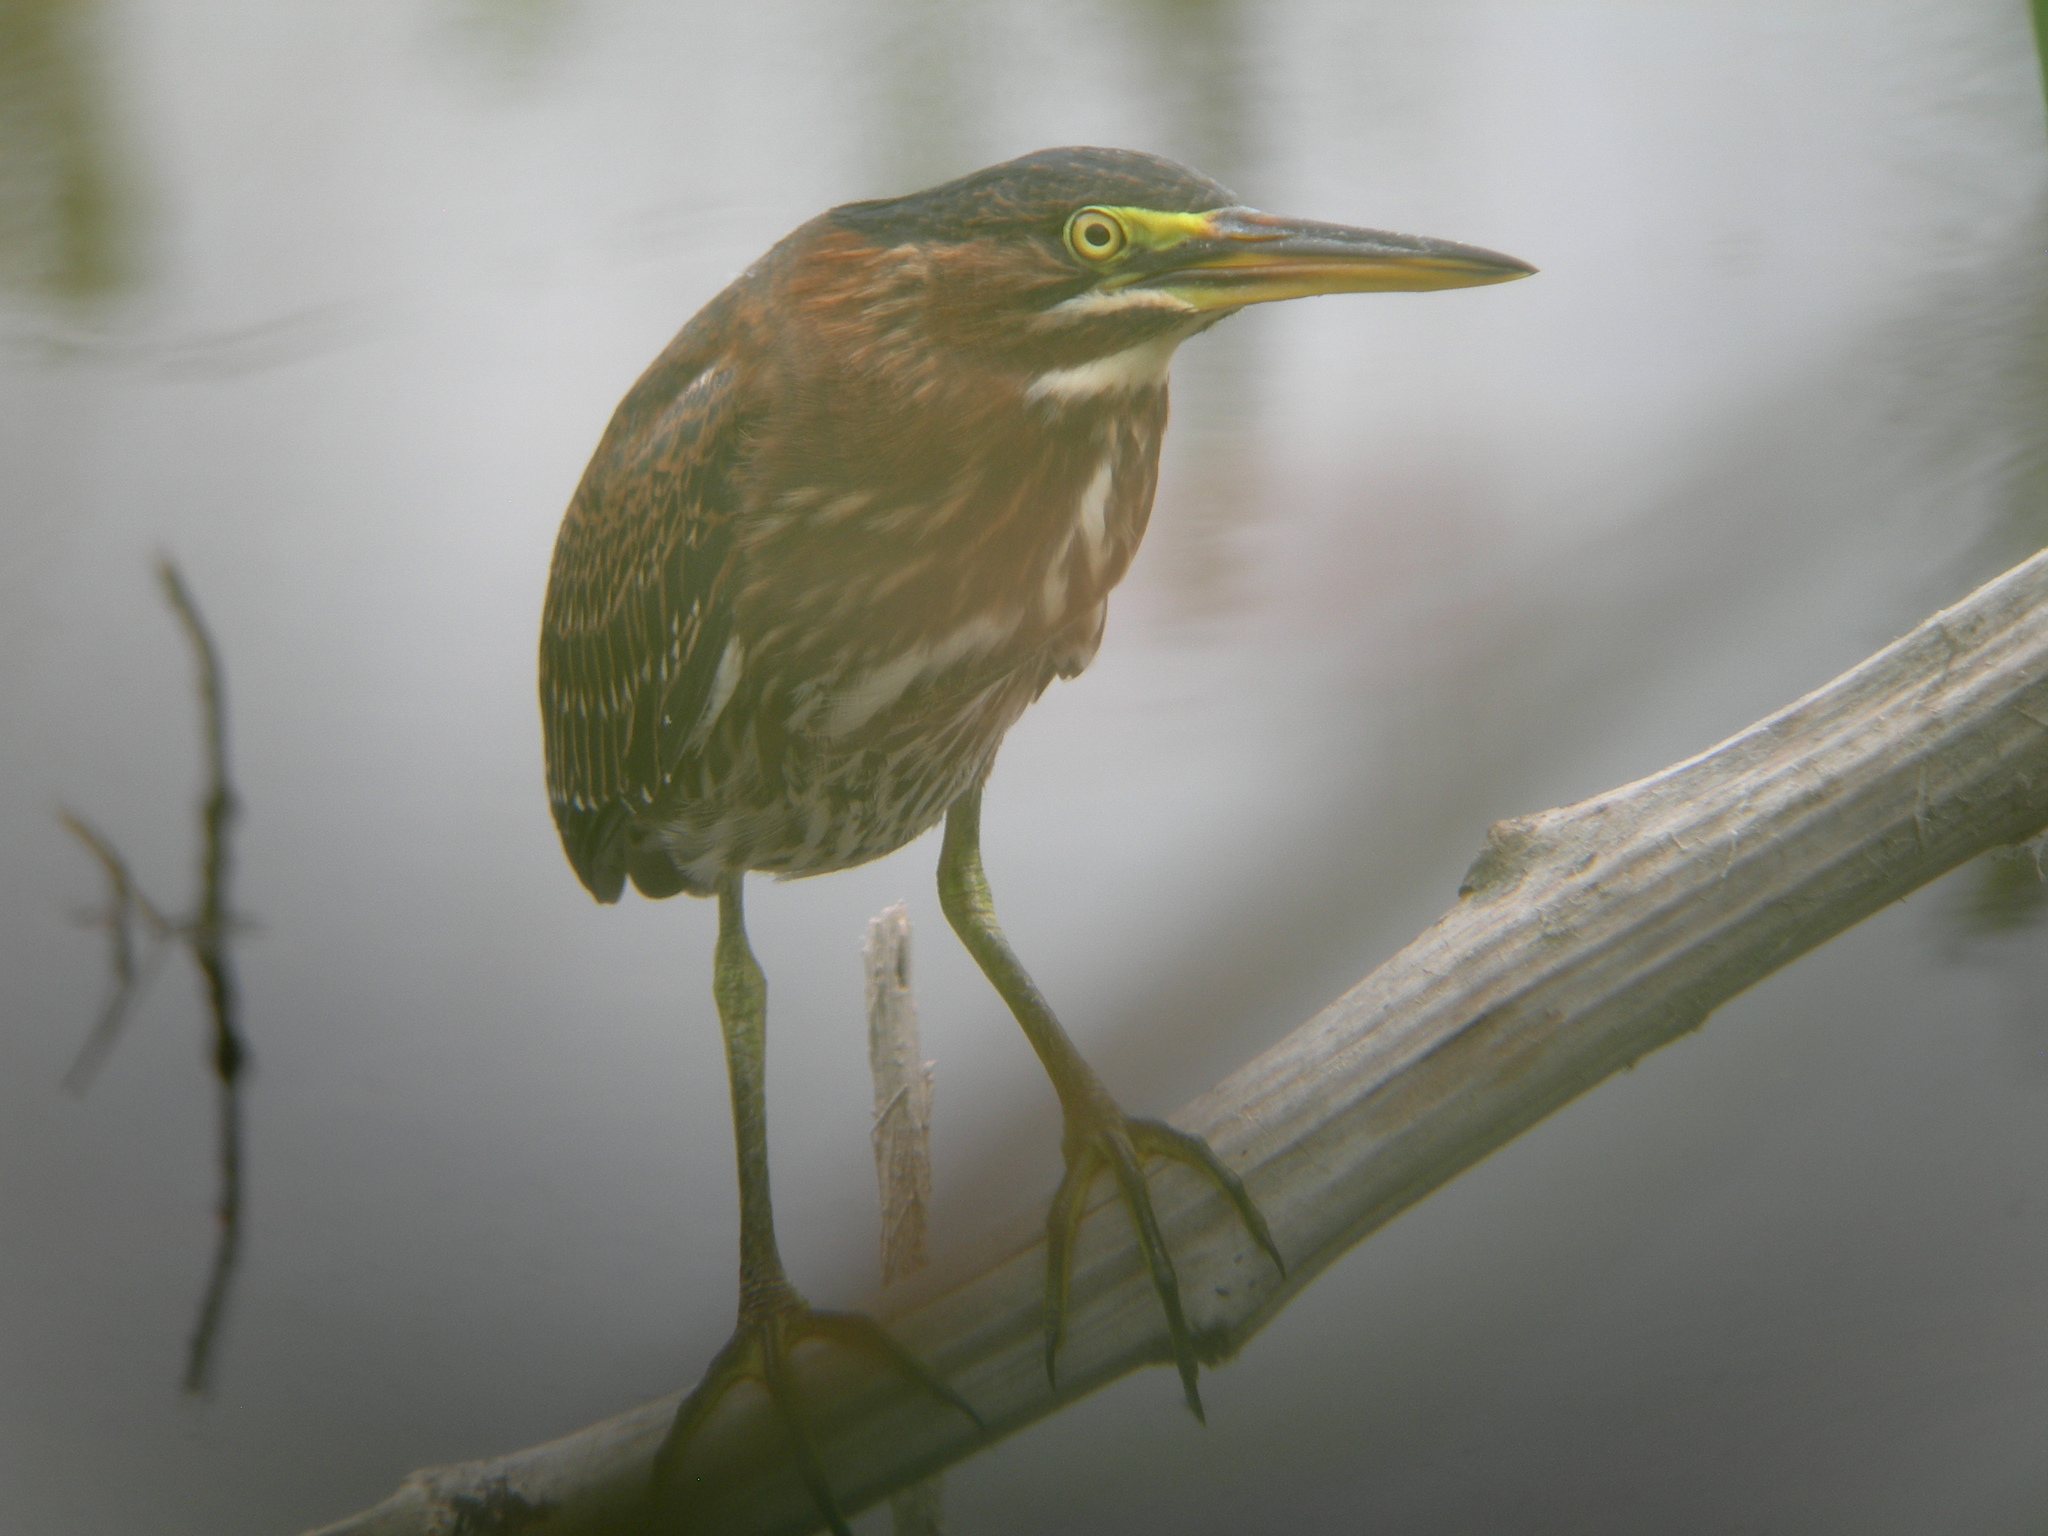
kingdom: Animalia
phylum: Chordata
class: Aves
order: Pelecaniformes
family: Ardeidae
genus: Butorides
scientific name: Butorides virescens
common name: Green heron
